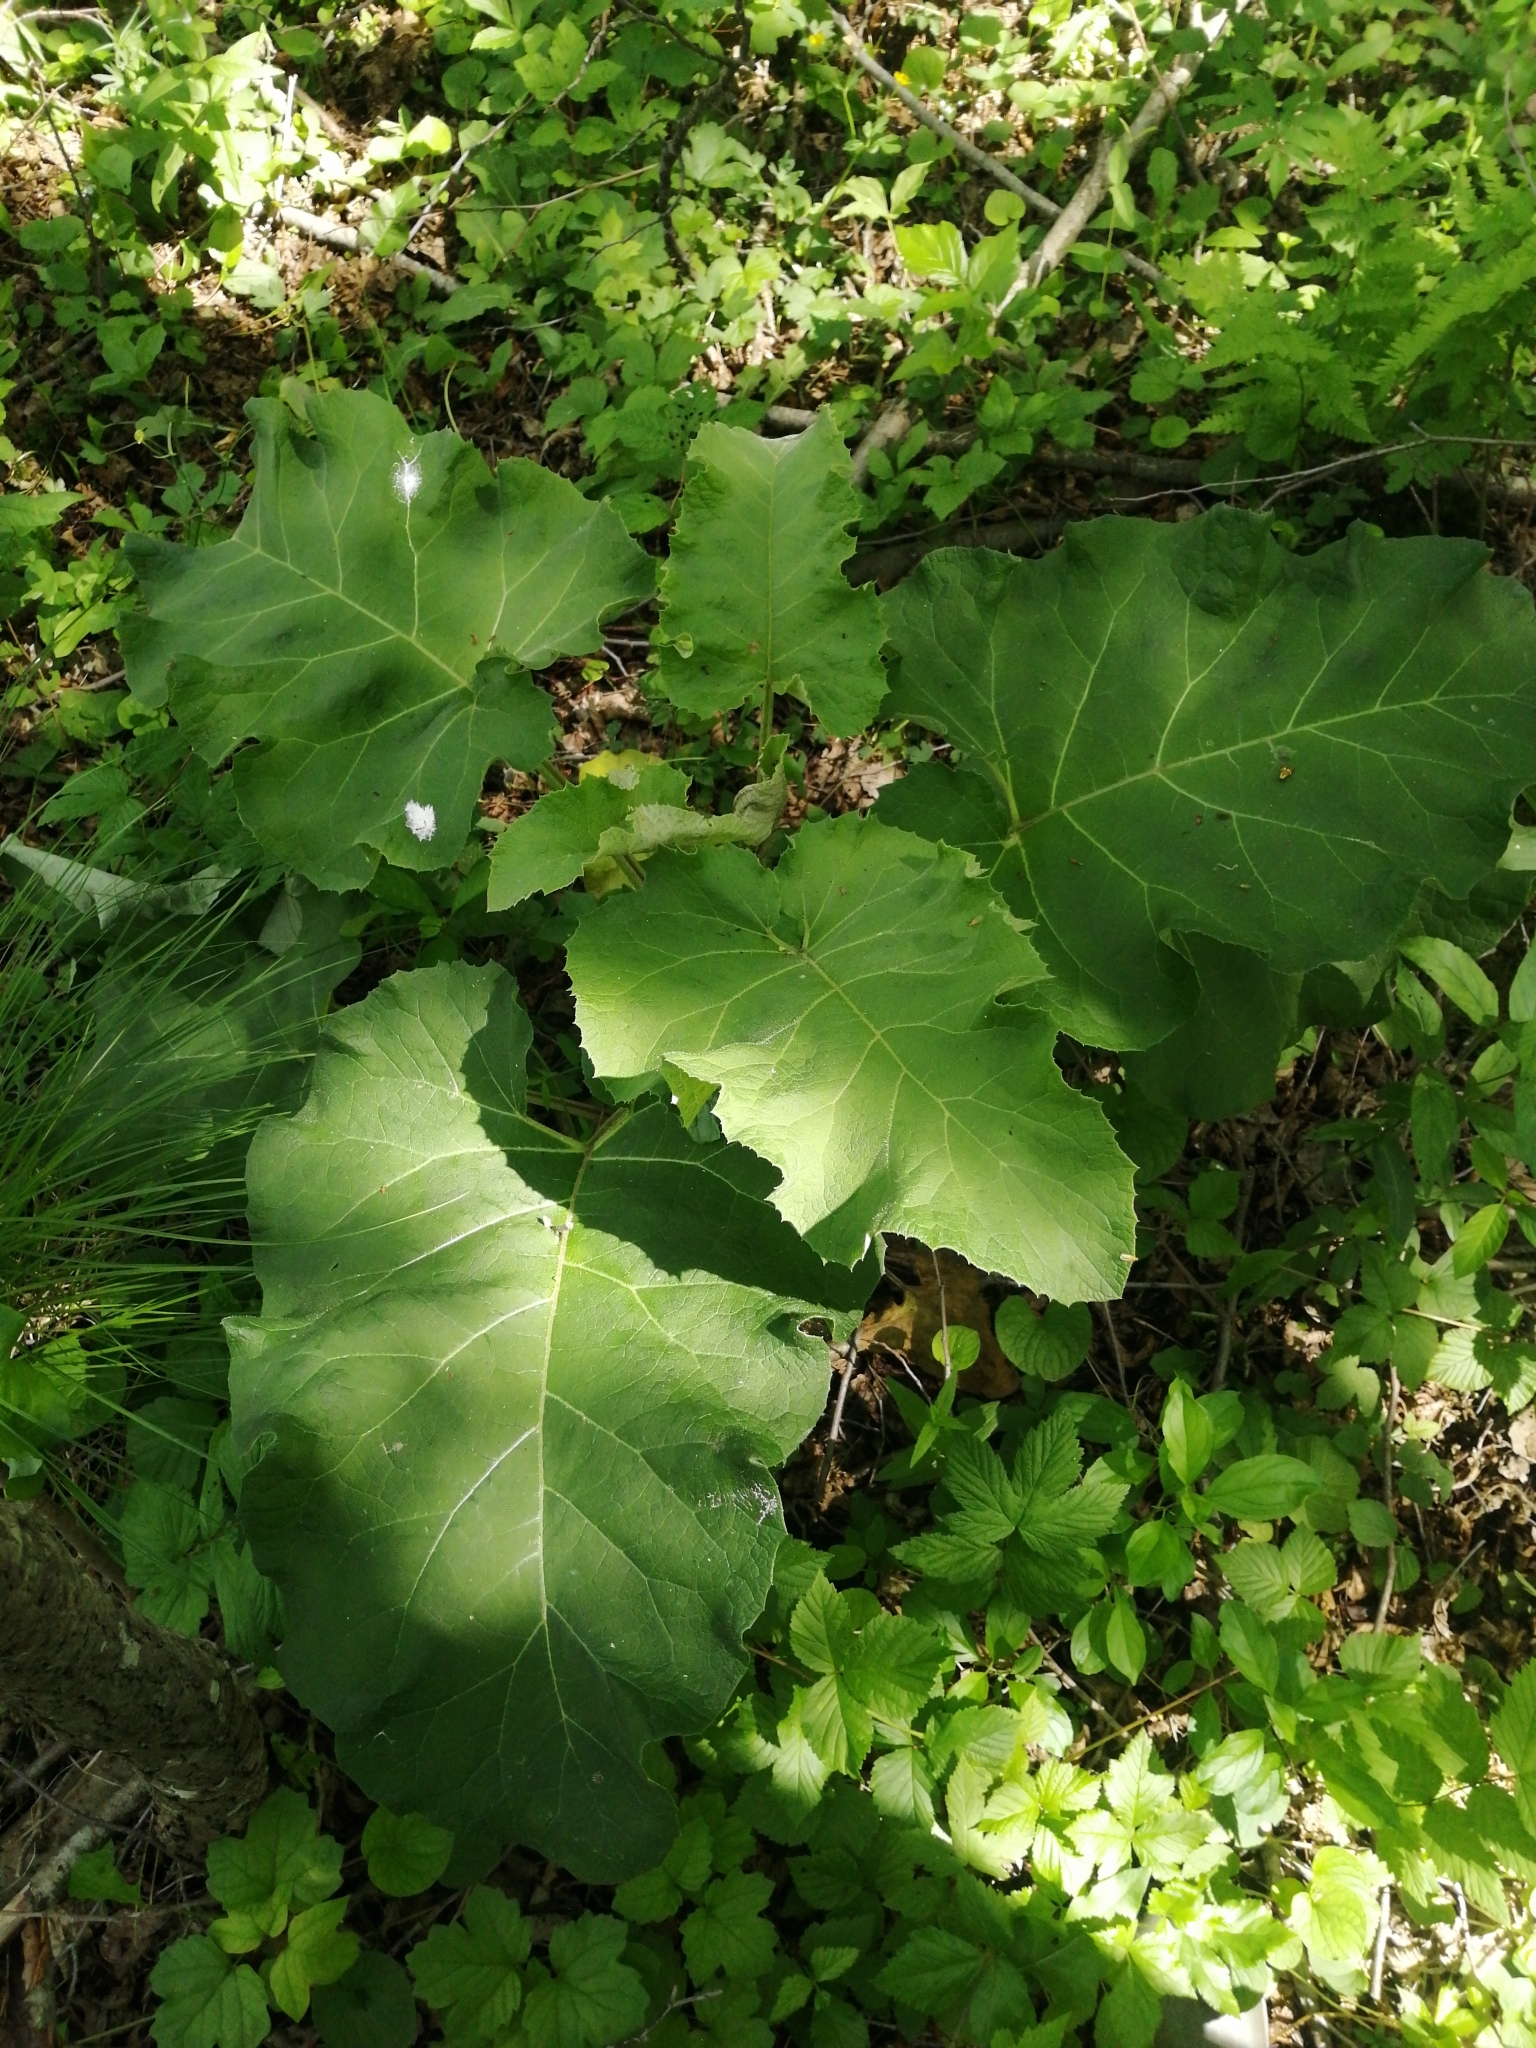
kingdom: Plantae
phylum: Tracheophyta
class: Magnoliopsida
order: Asterales
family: Asteraceae
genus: Arctium
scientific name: Arctium
